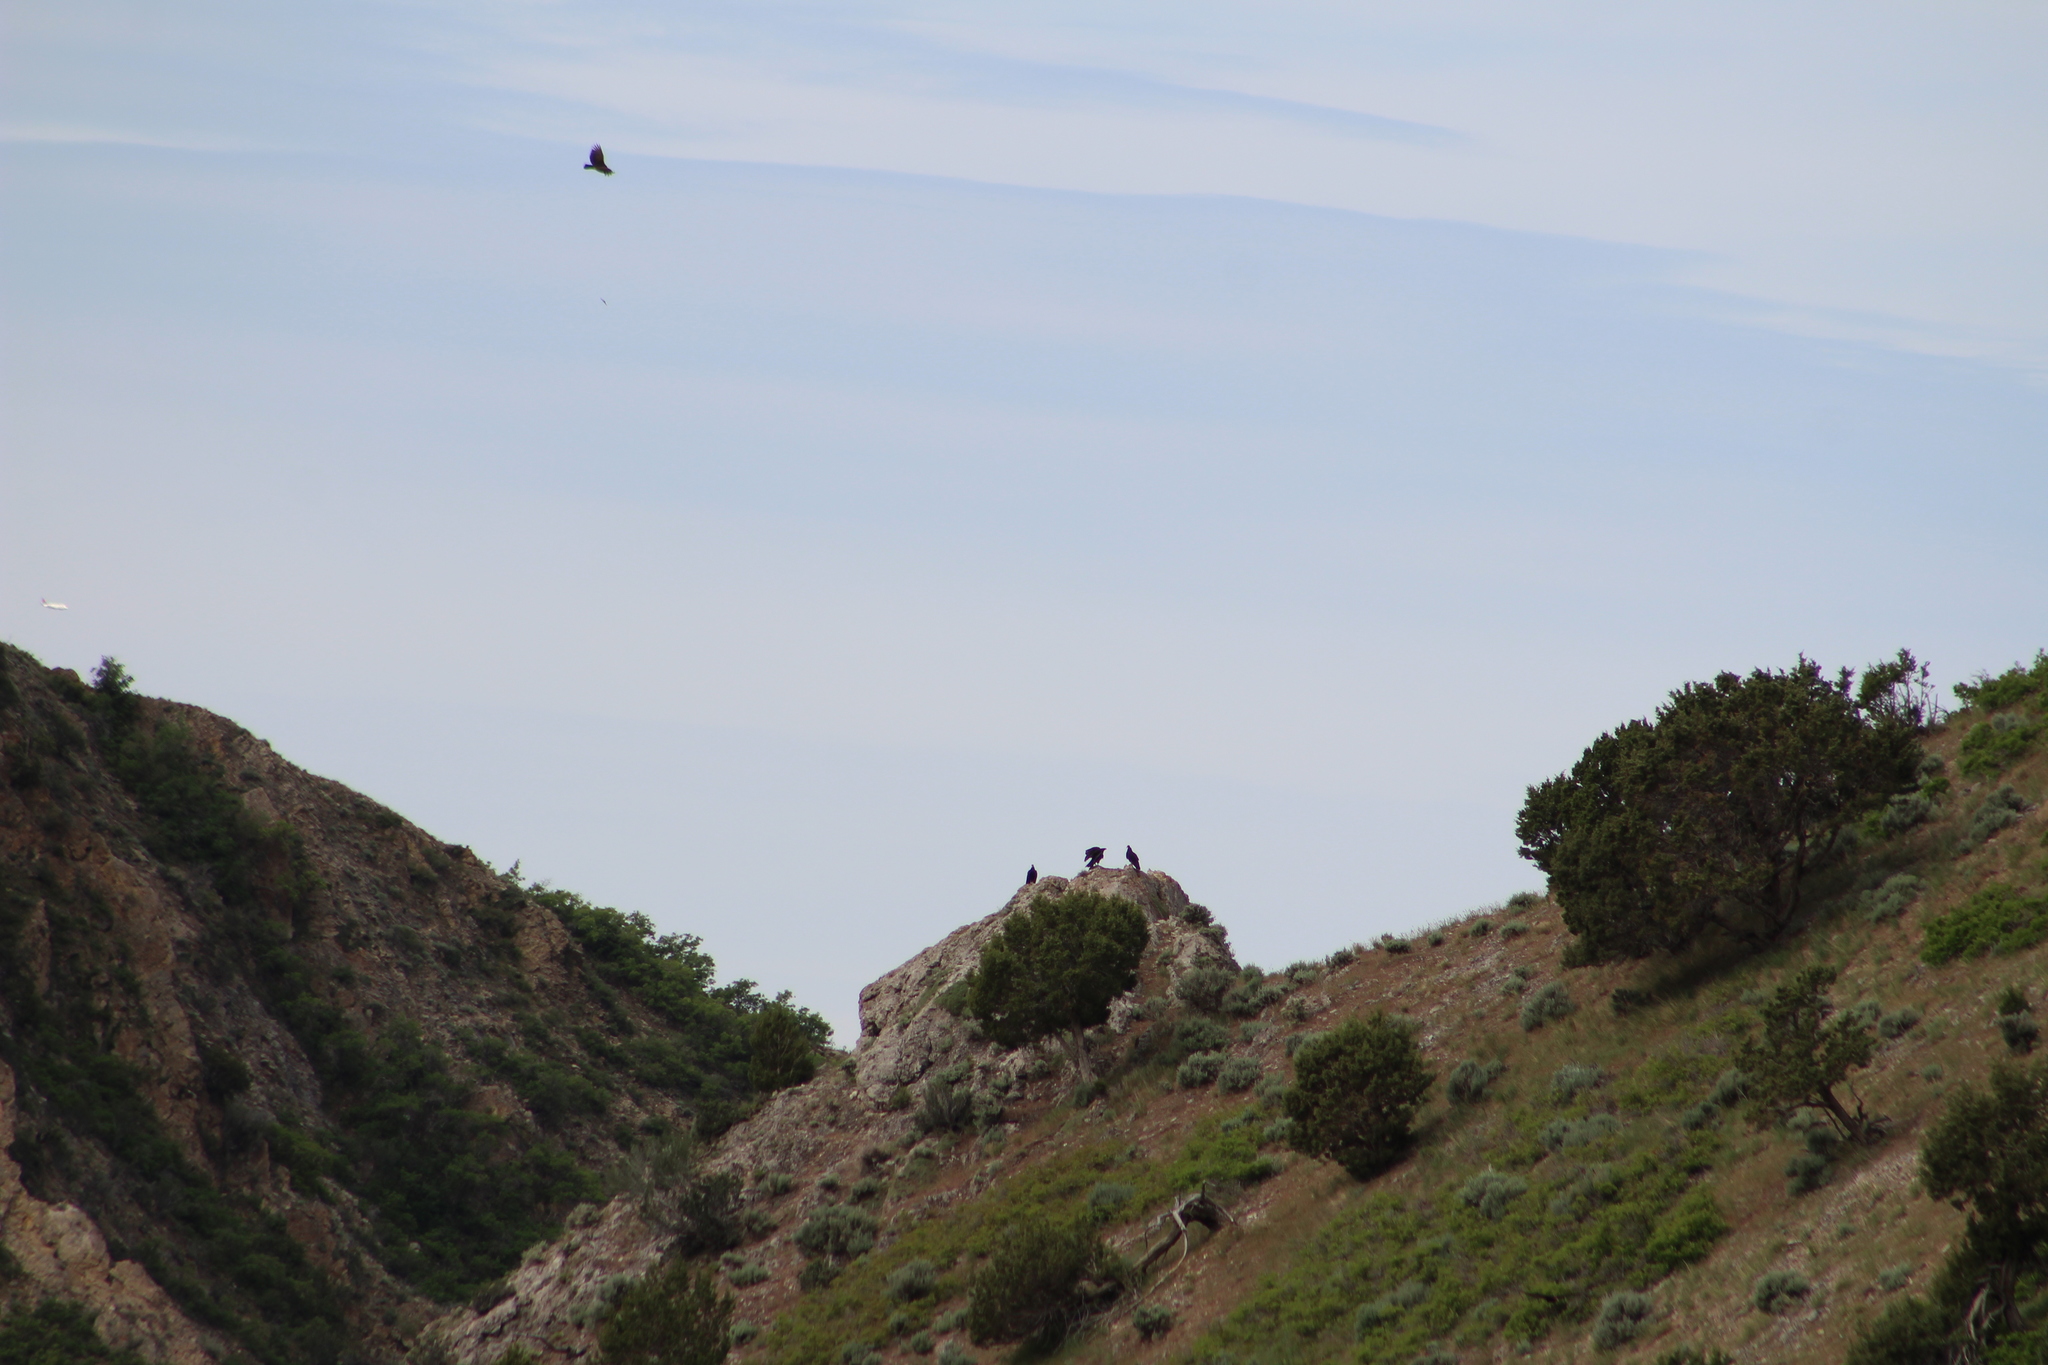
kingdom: Animalia
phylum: Chordata
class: Aves
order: Accipitriformes
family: Cathartidae
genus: Cathartes
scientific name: Cathartes aura
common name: Turkey vulture
